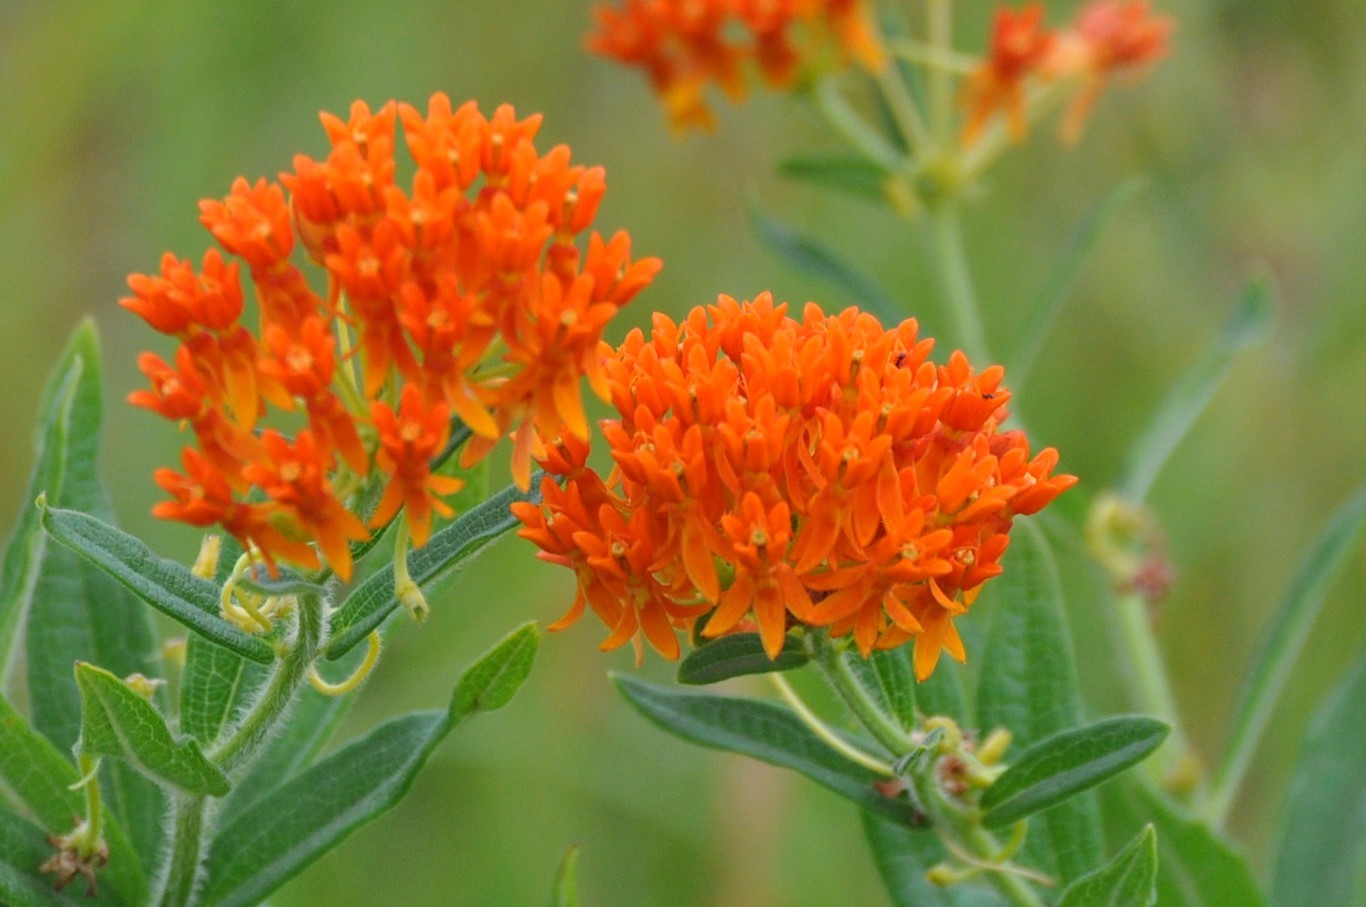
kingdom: Plantae
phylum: Tracheophyta
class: Magnoliopsida
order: Gentianales
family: Apocynaceae
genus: Asclepias
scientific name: Asclepias tuberosa
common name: Butterfly milkweed
